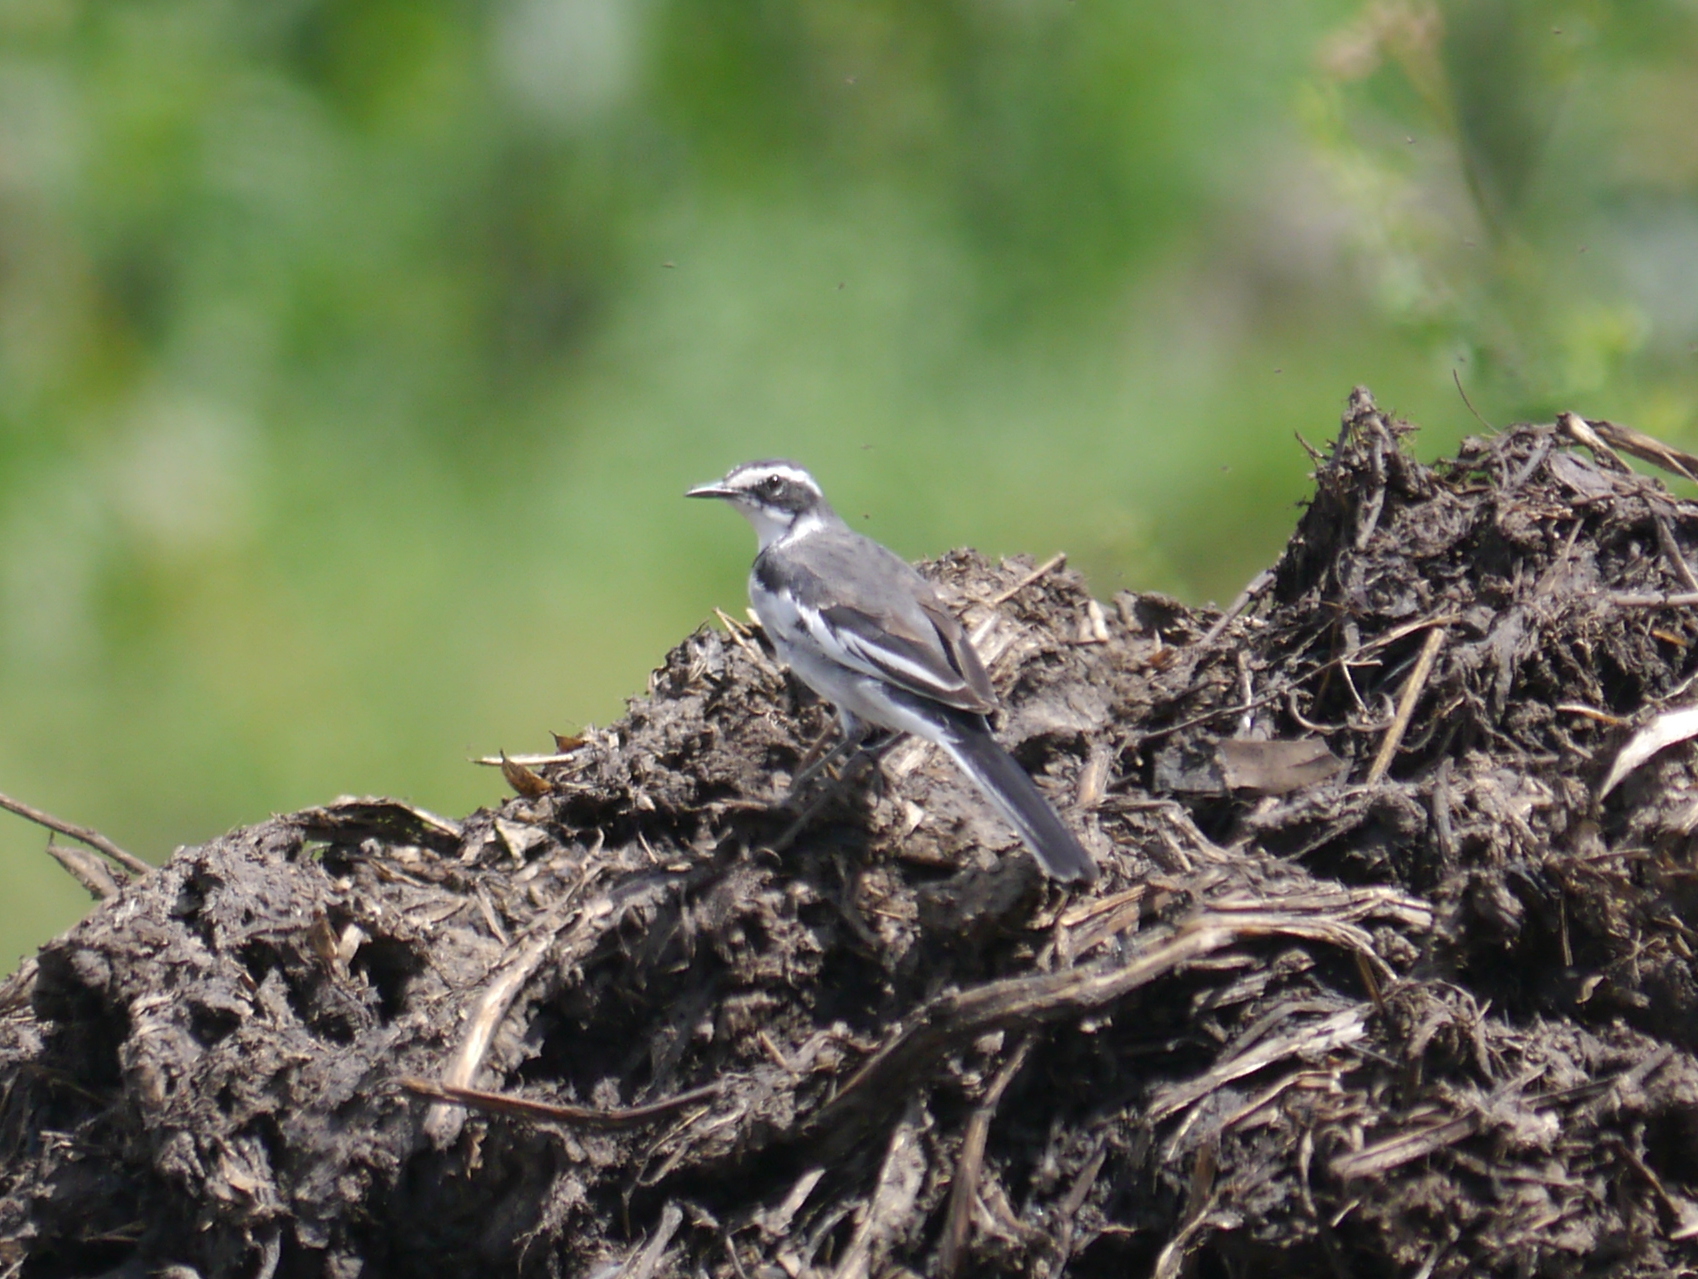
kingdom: Animalia
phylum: Chordata
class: Aves
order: Passeriformes
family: Motacillidae
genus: Motacilla
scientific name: Motacilla aguimp
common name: African pied wagtail
